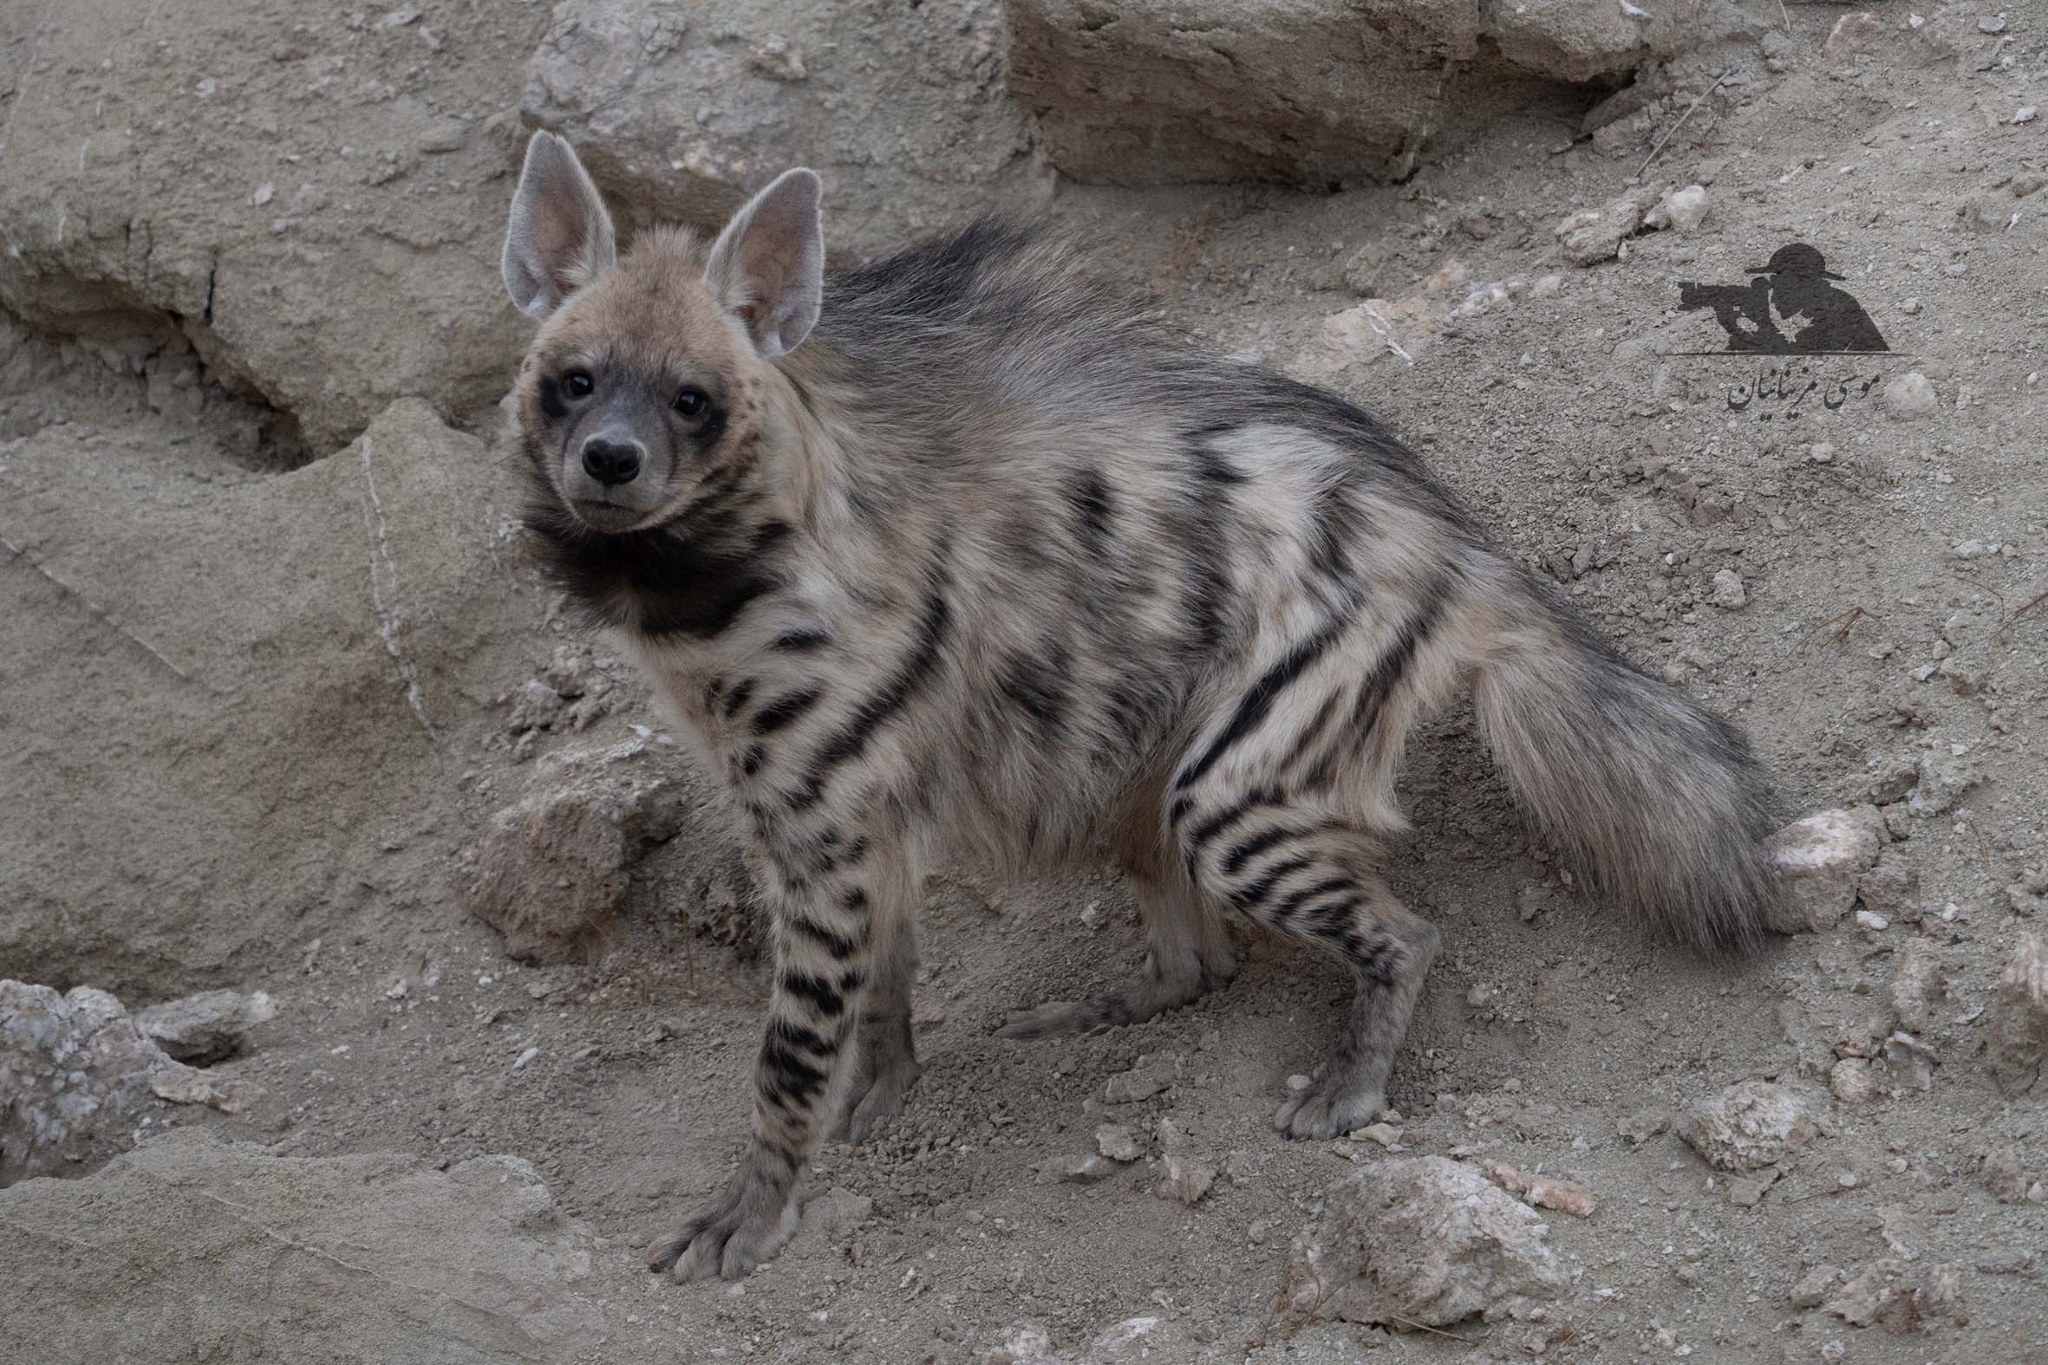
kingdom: Animalia
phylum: Chordata
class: Mammalia
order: Carnivora
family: Hyaenidae
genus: Hyaena
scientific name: Hyaena hyaena
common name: Striped hyaena
